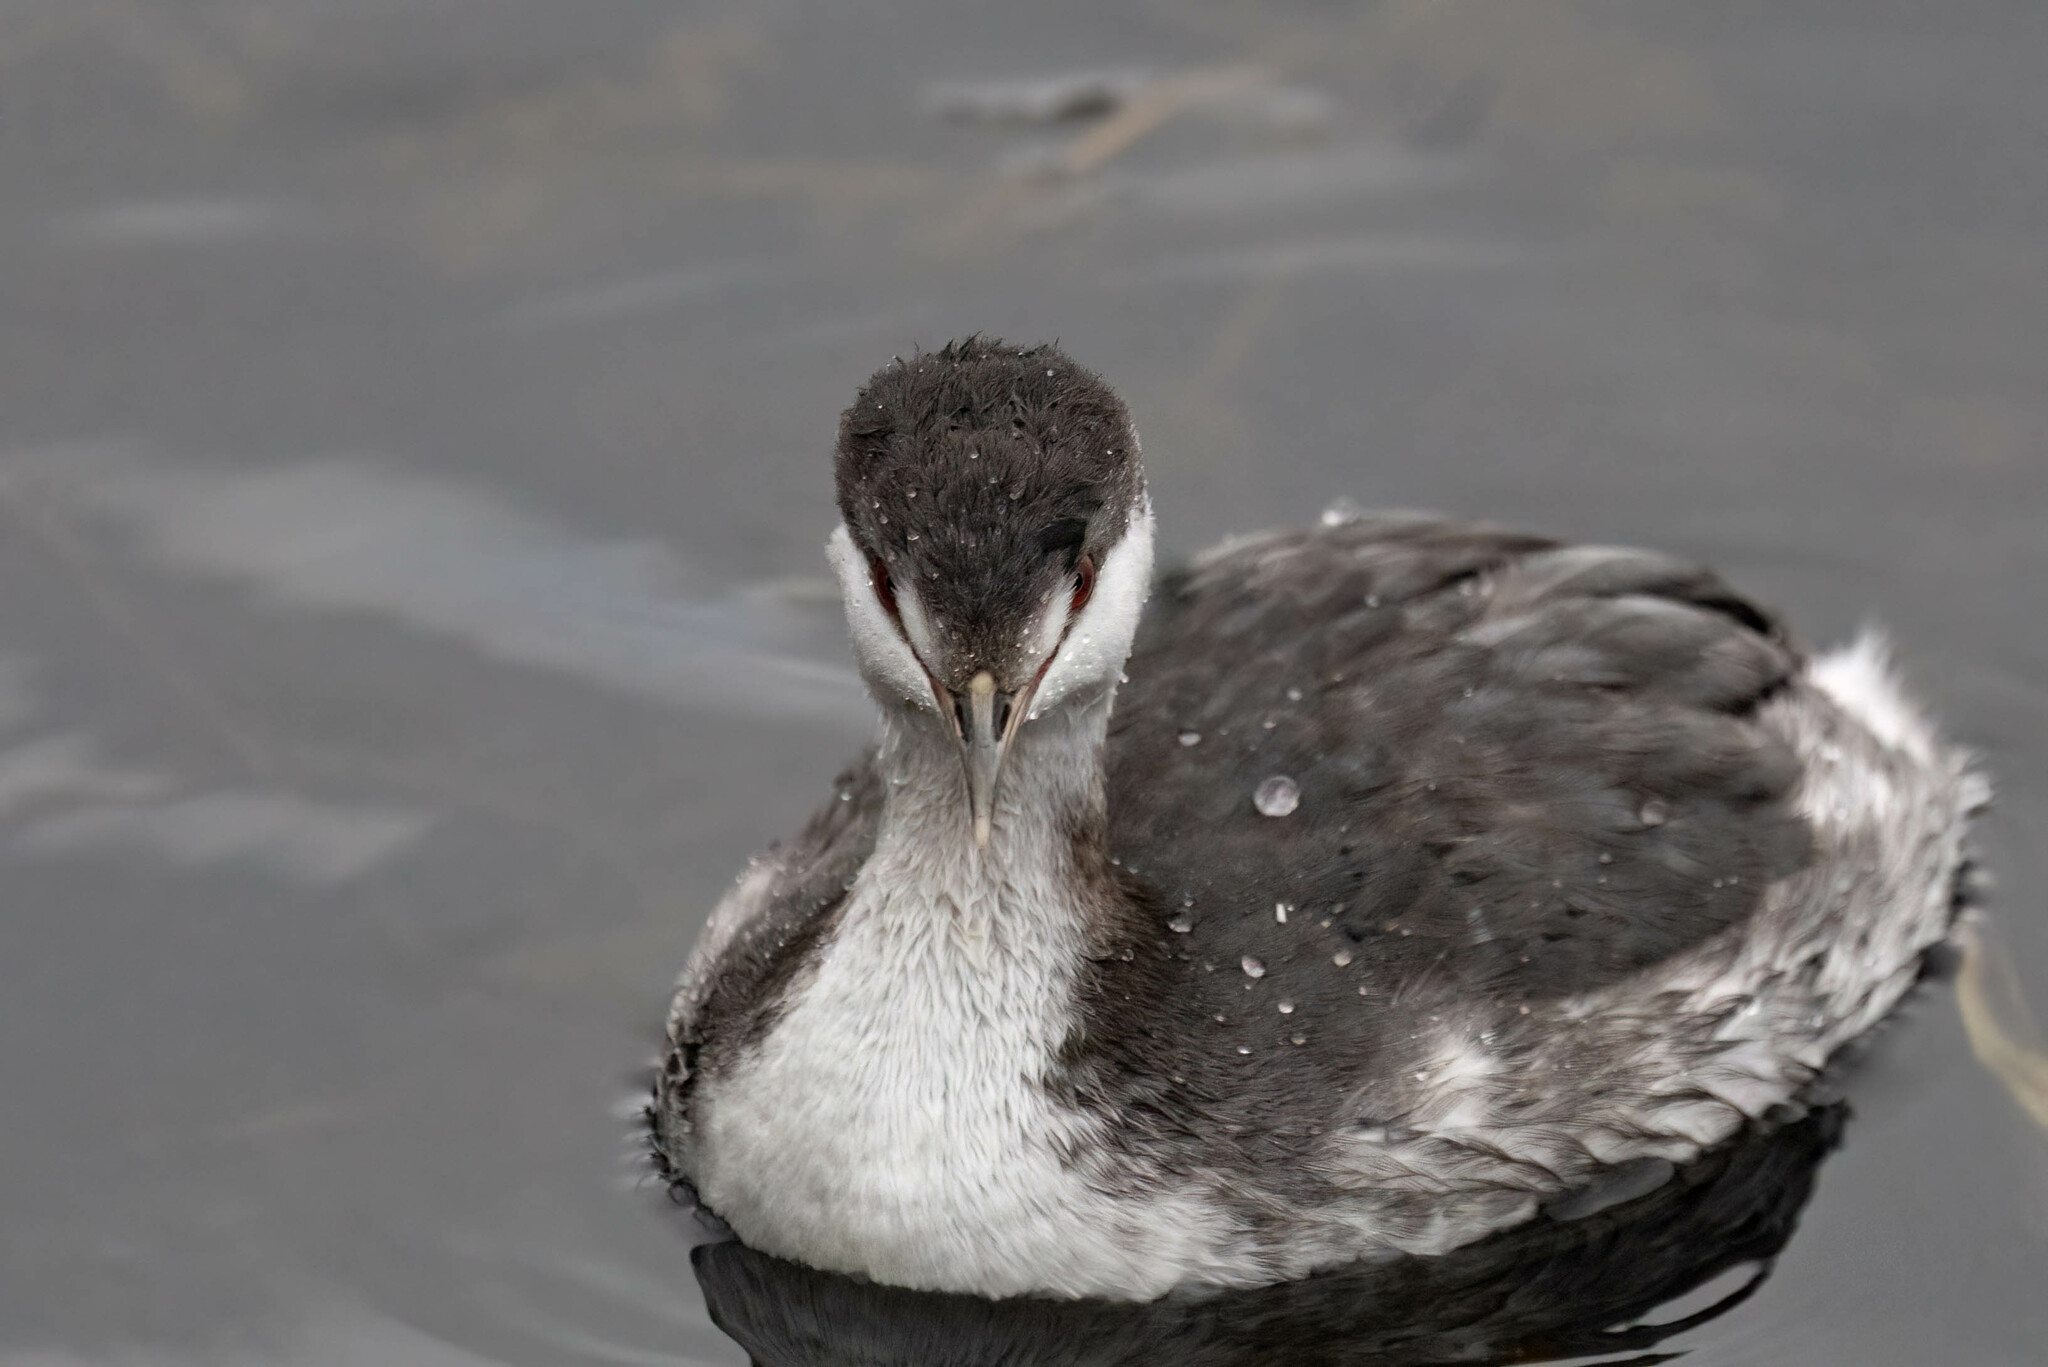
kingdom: Animalia
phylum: Chordata
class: Aves
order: Podicipediformes
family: Podicipedidae
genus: Podiceps
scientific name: Podiceps auritus
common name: Horned grebe
